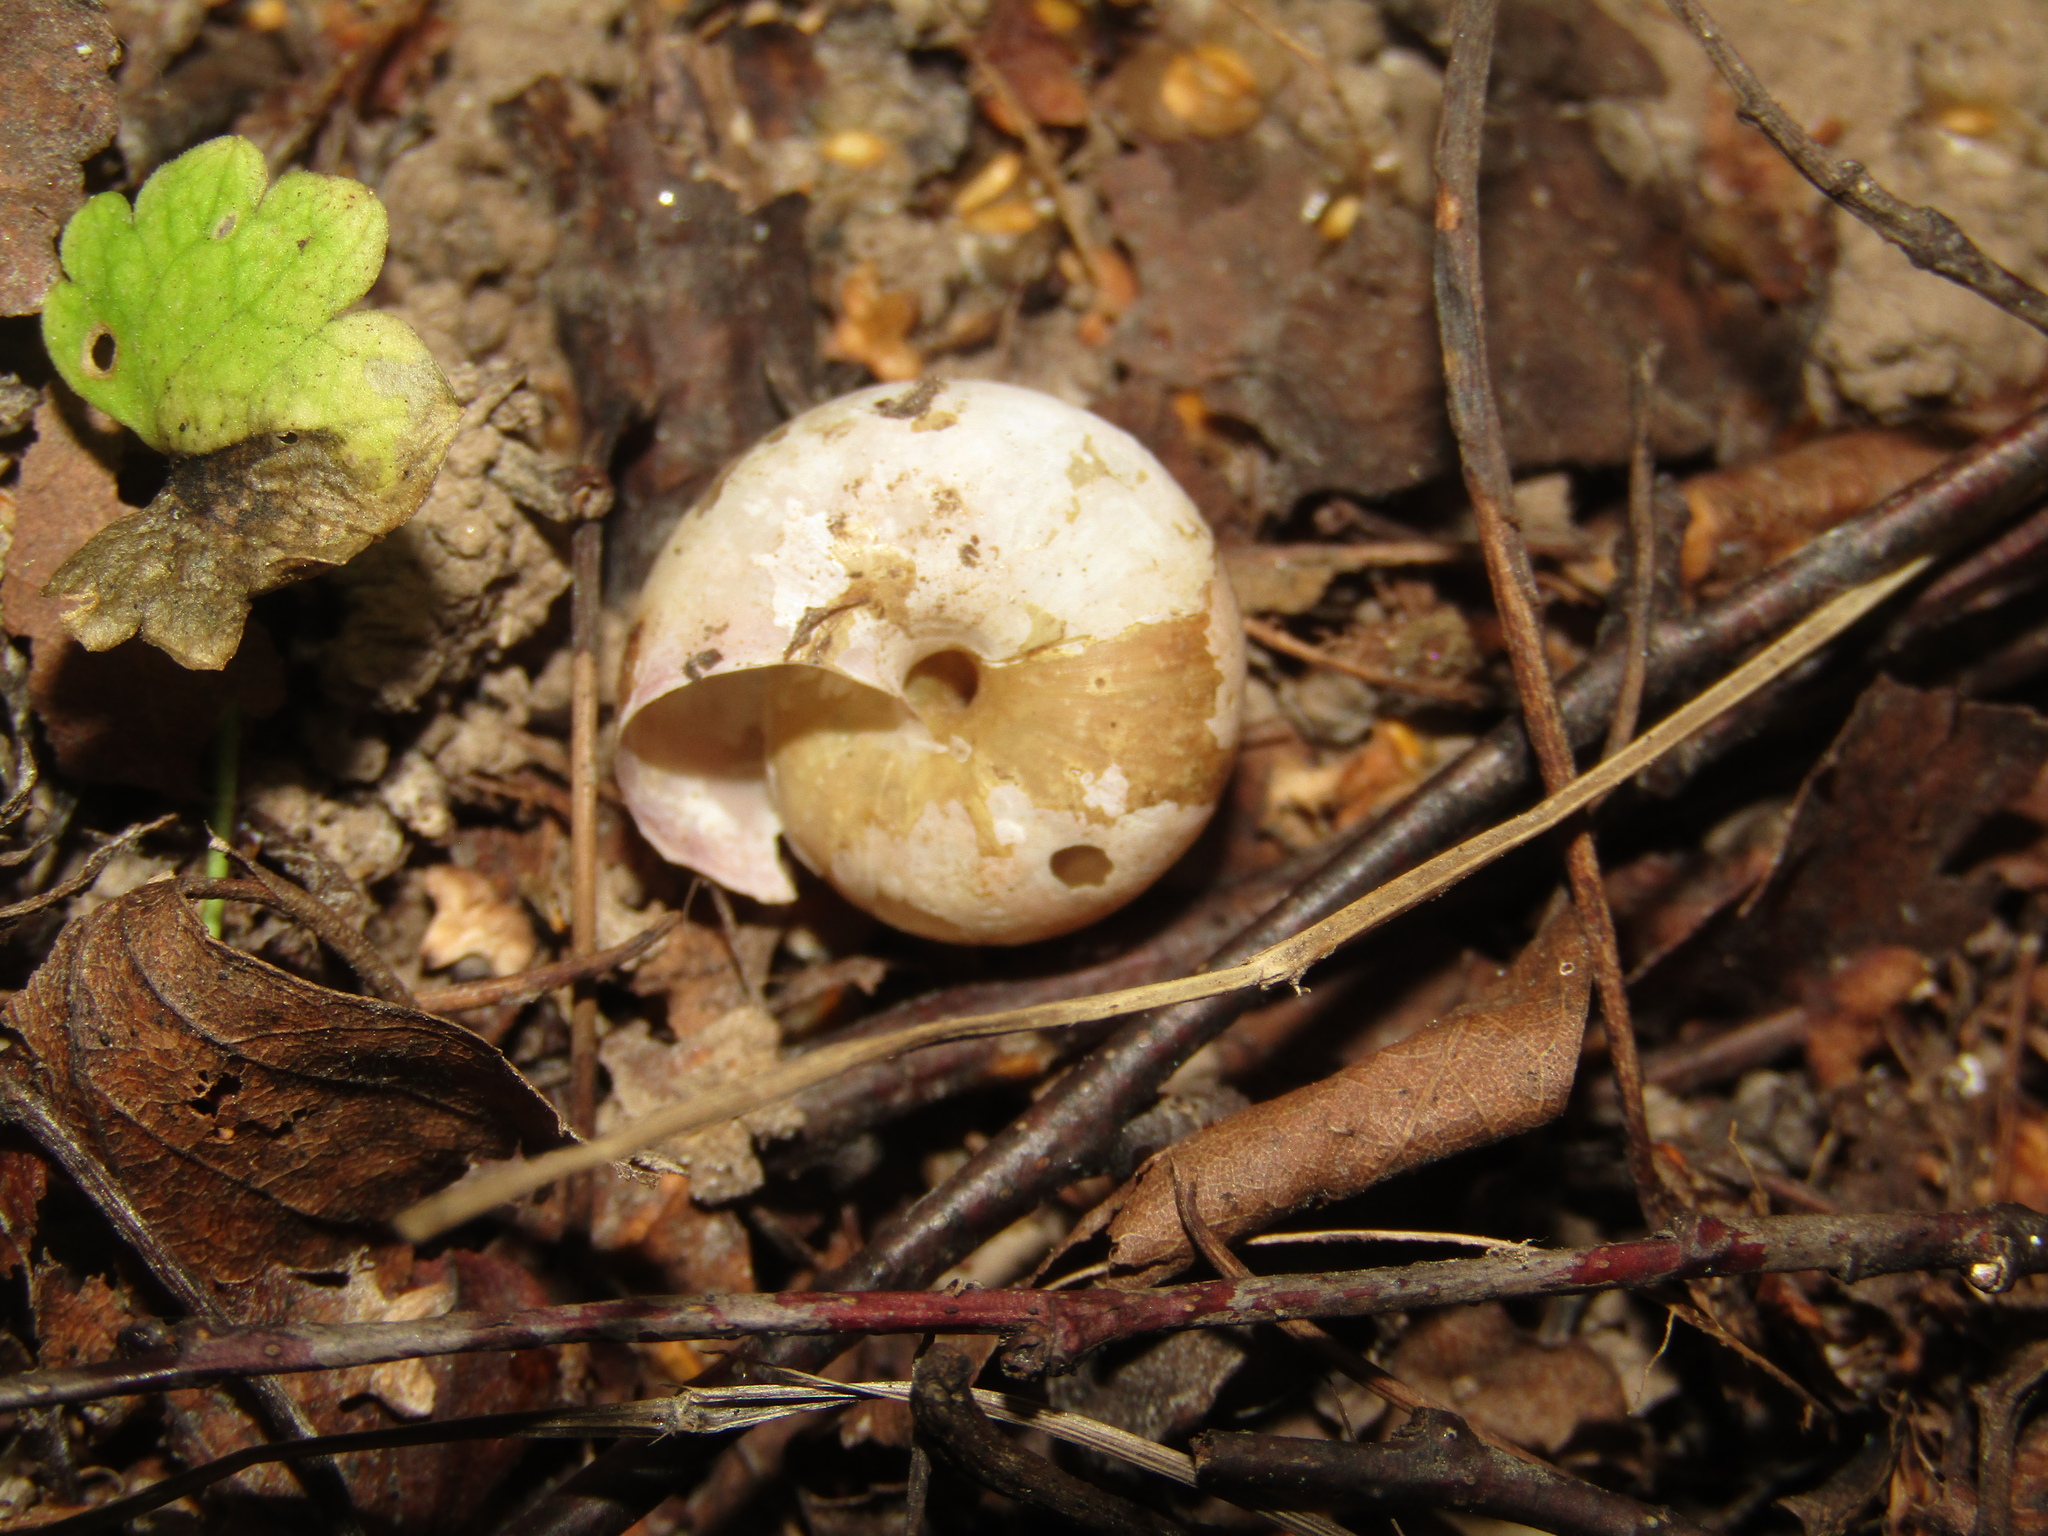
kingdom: Animalia
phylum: Mollusca
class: Gastropoda
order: Stylommatophora
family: Camaenidae
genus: Fruticicola
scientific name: Fruticicola fruticum
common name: Bush snail
